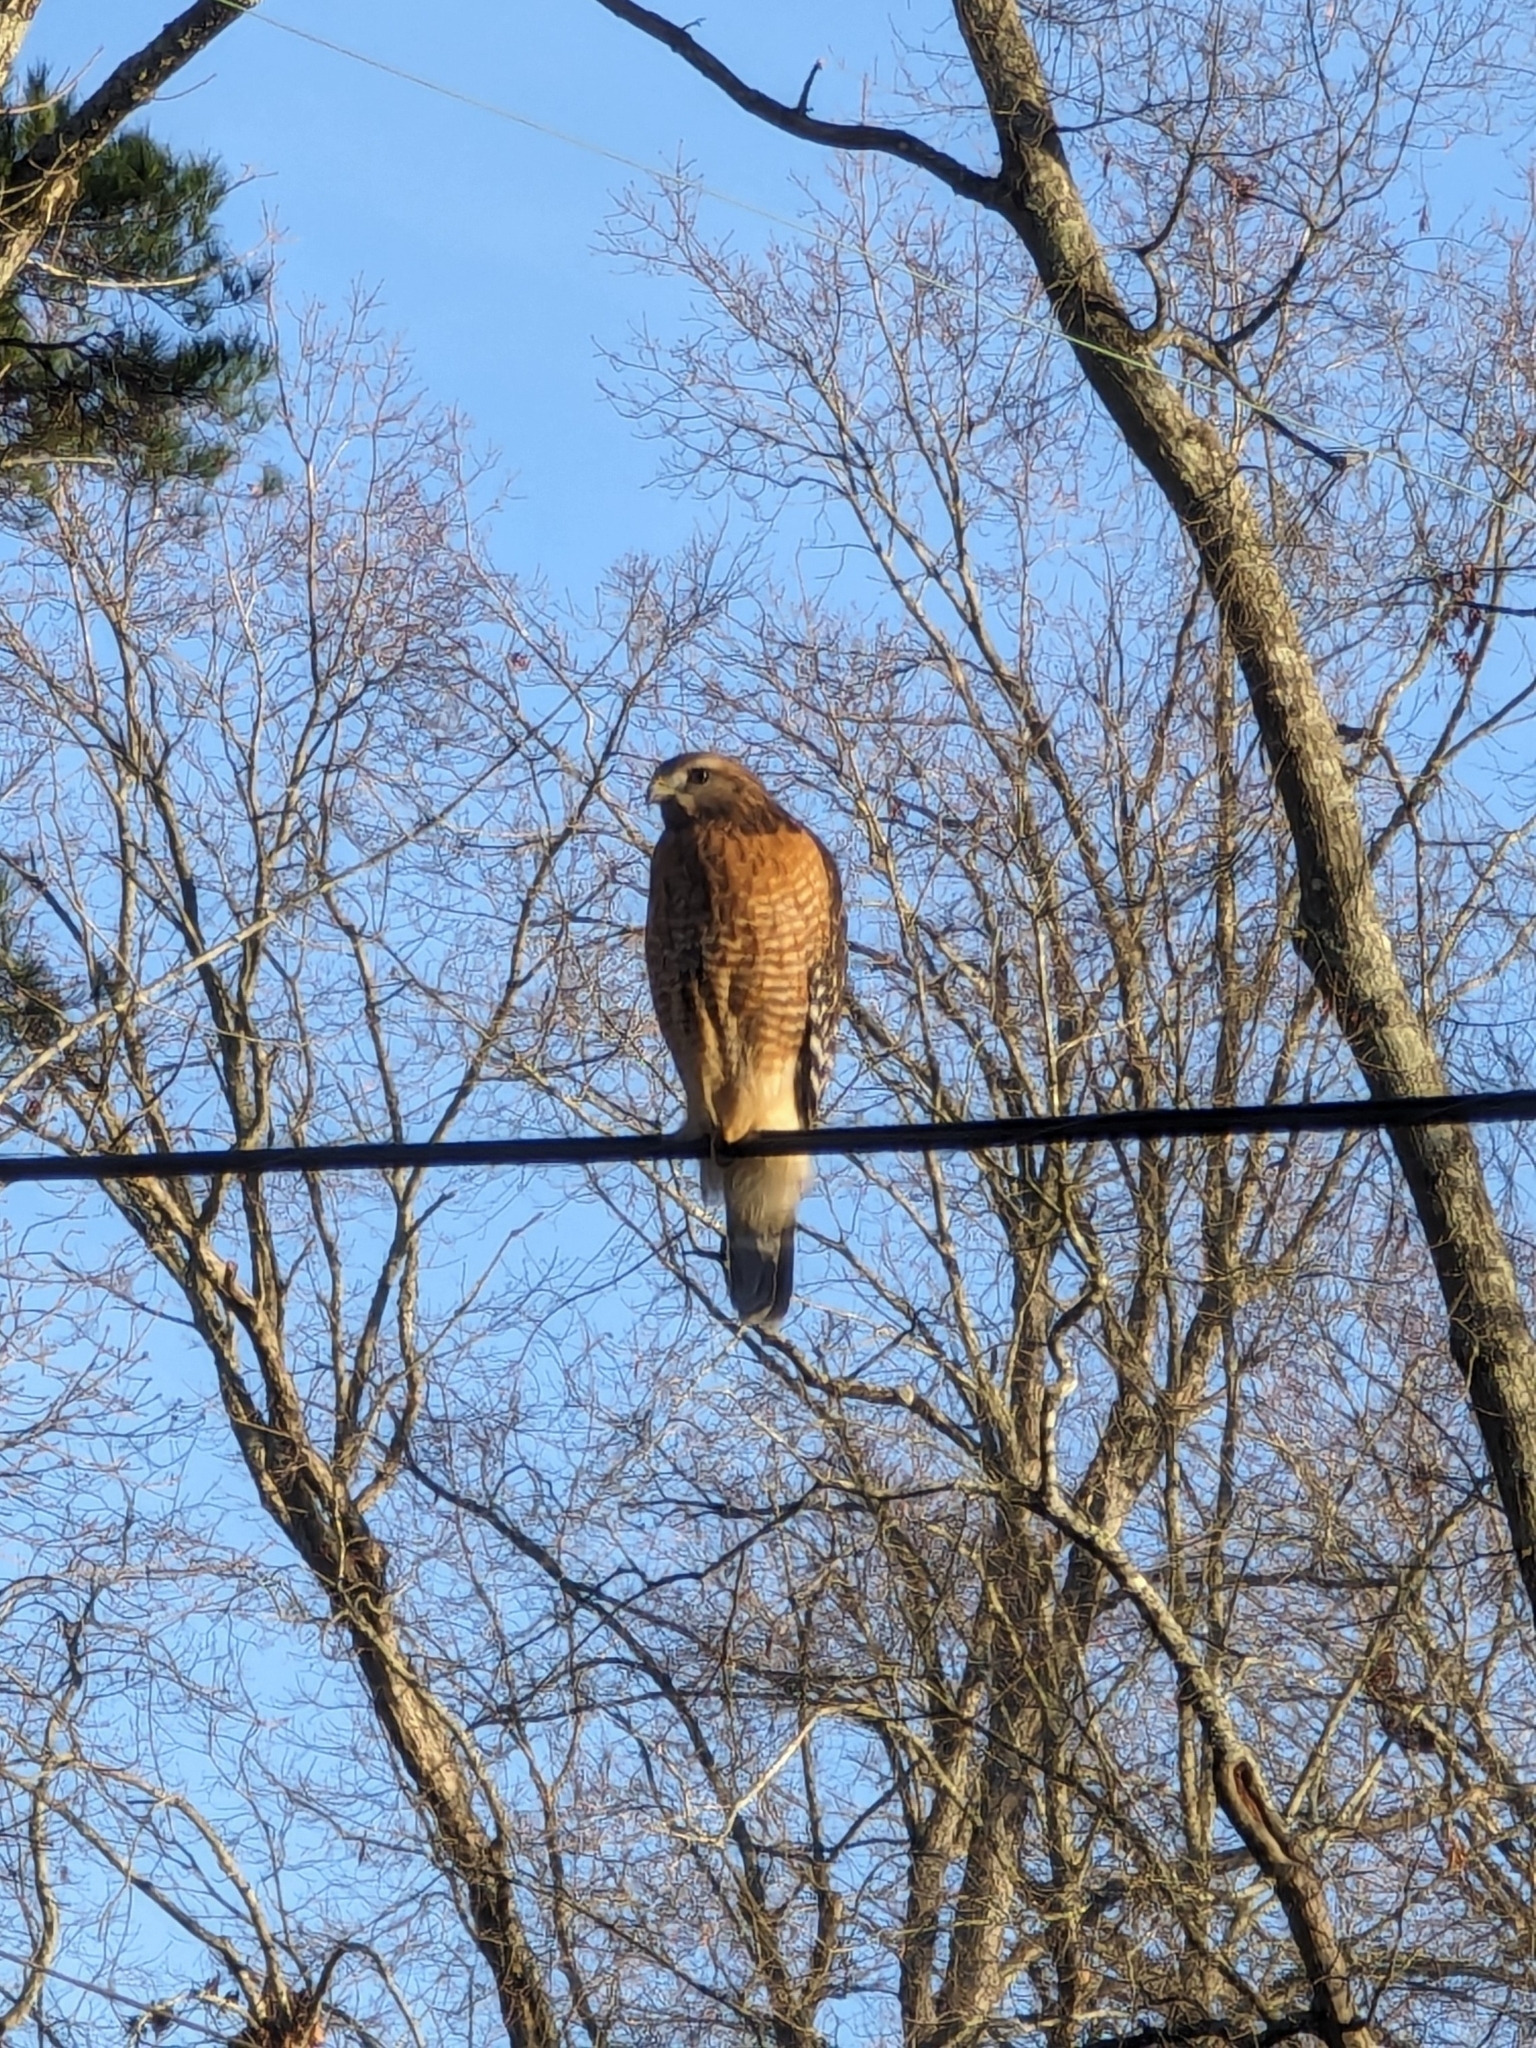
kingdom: Animalia
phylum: Chordata
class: Aves
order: Accipitriformes
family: Accipitridae
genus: Buteo
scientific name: Buteo lineatus
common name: Red-shouldered hawk
